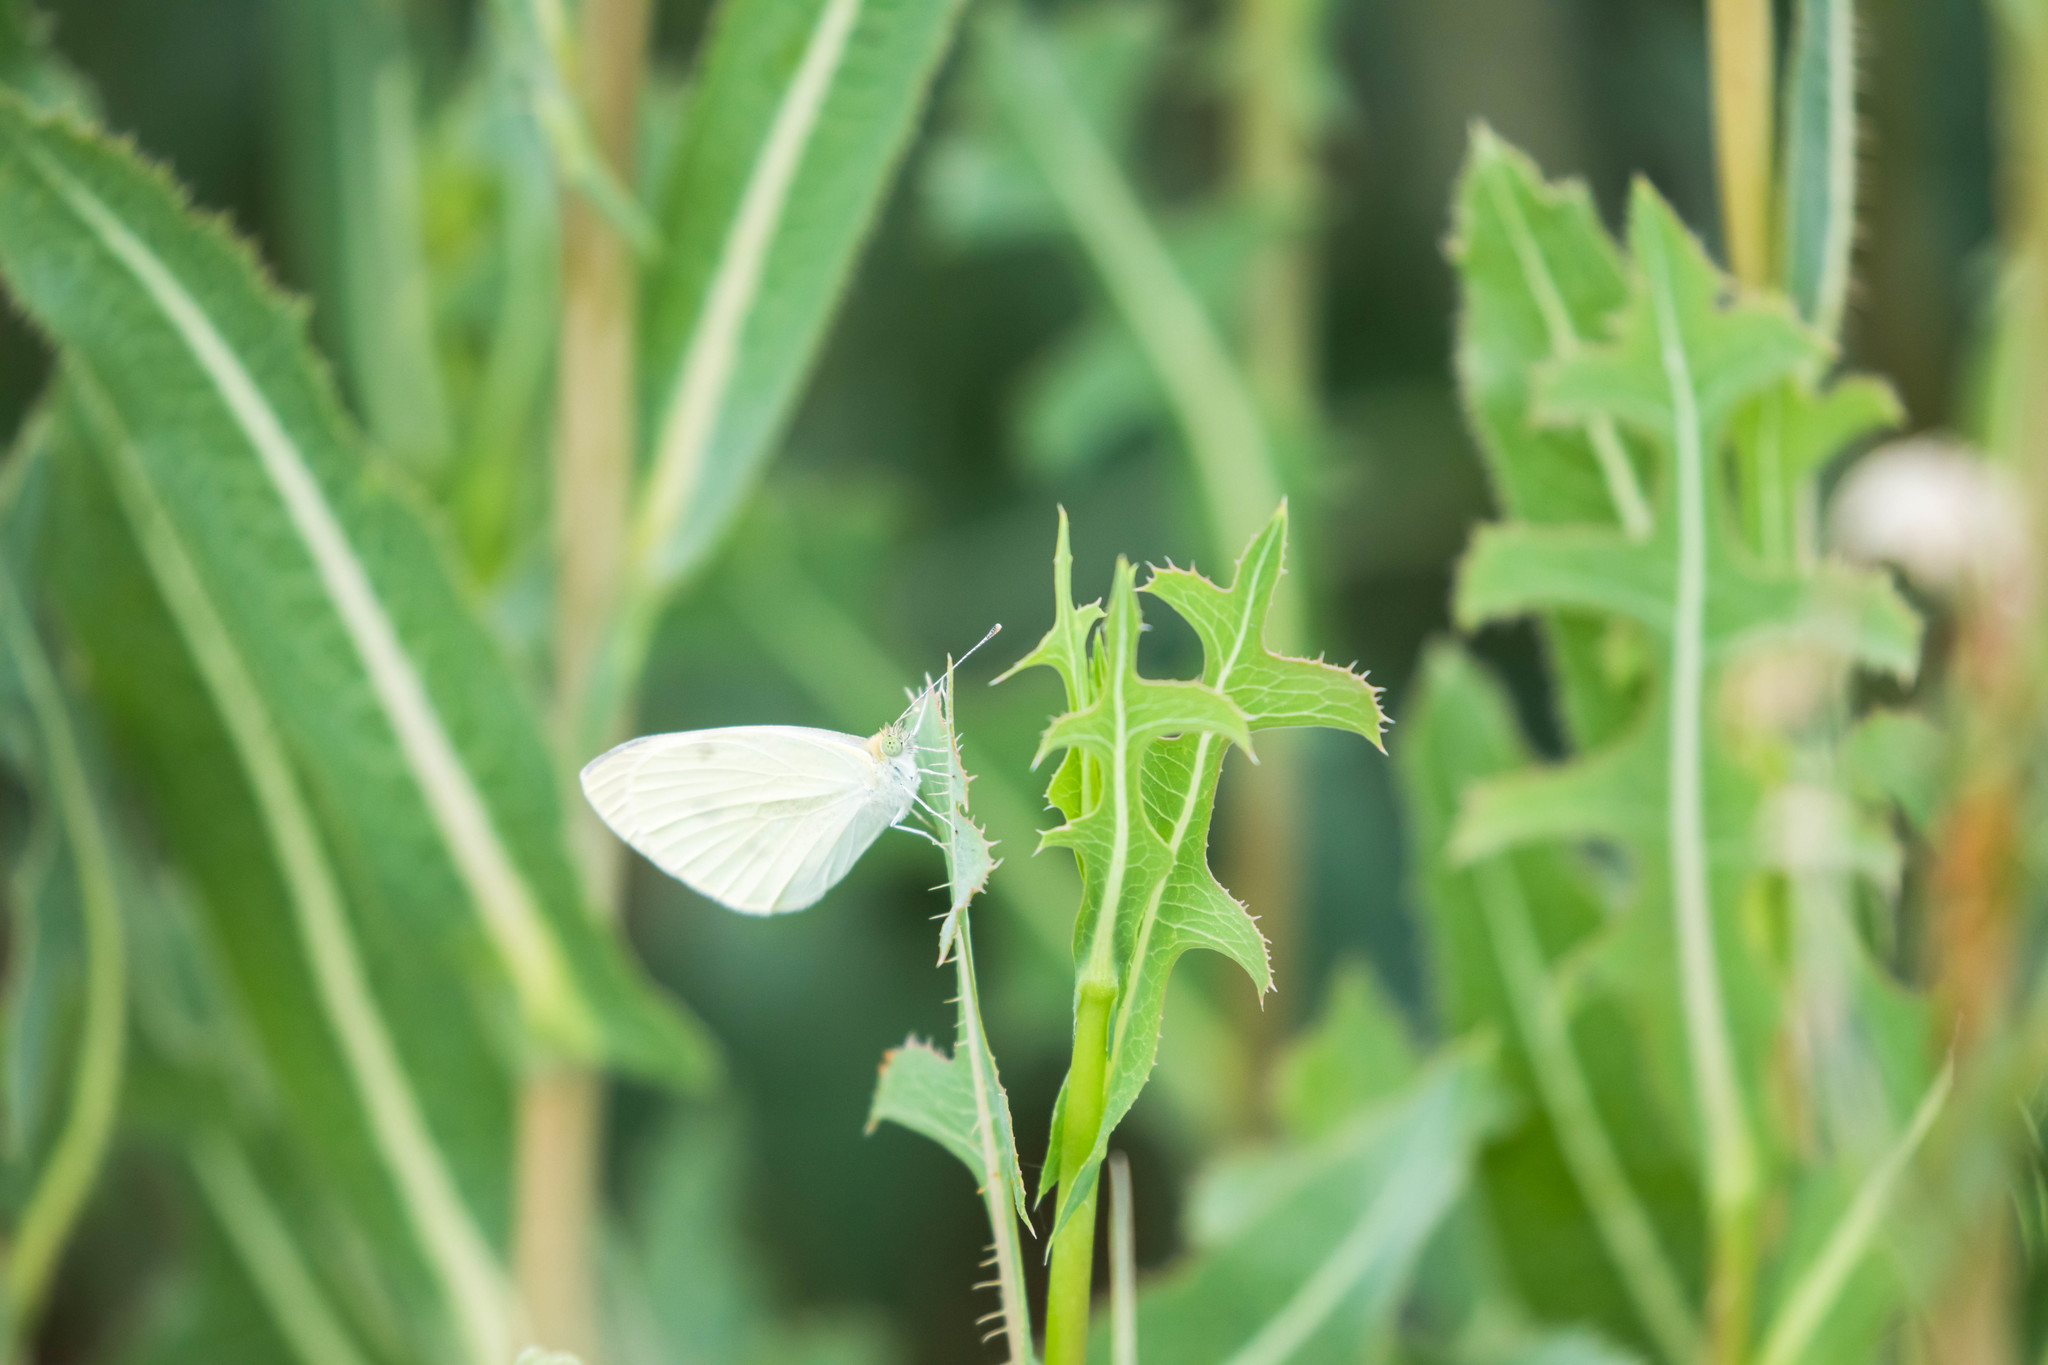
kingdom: Animalia
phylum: Arthropoda
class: Insecta
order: Lepidoptera
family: Pieridae
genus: Pieris
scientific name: Pieris rapae
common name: Small white
